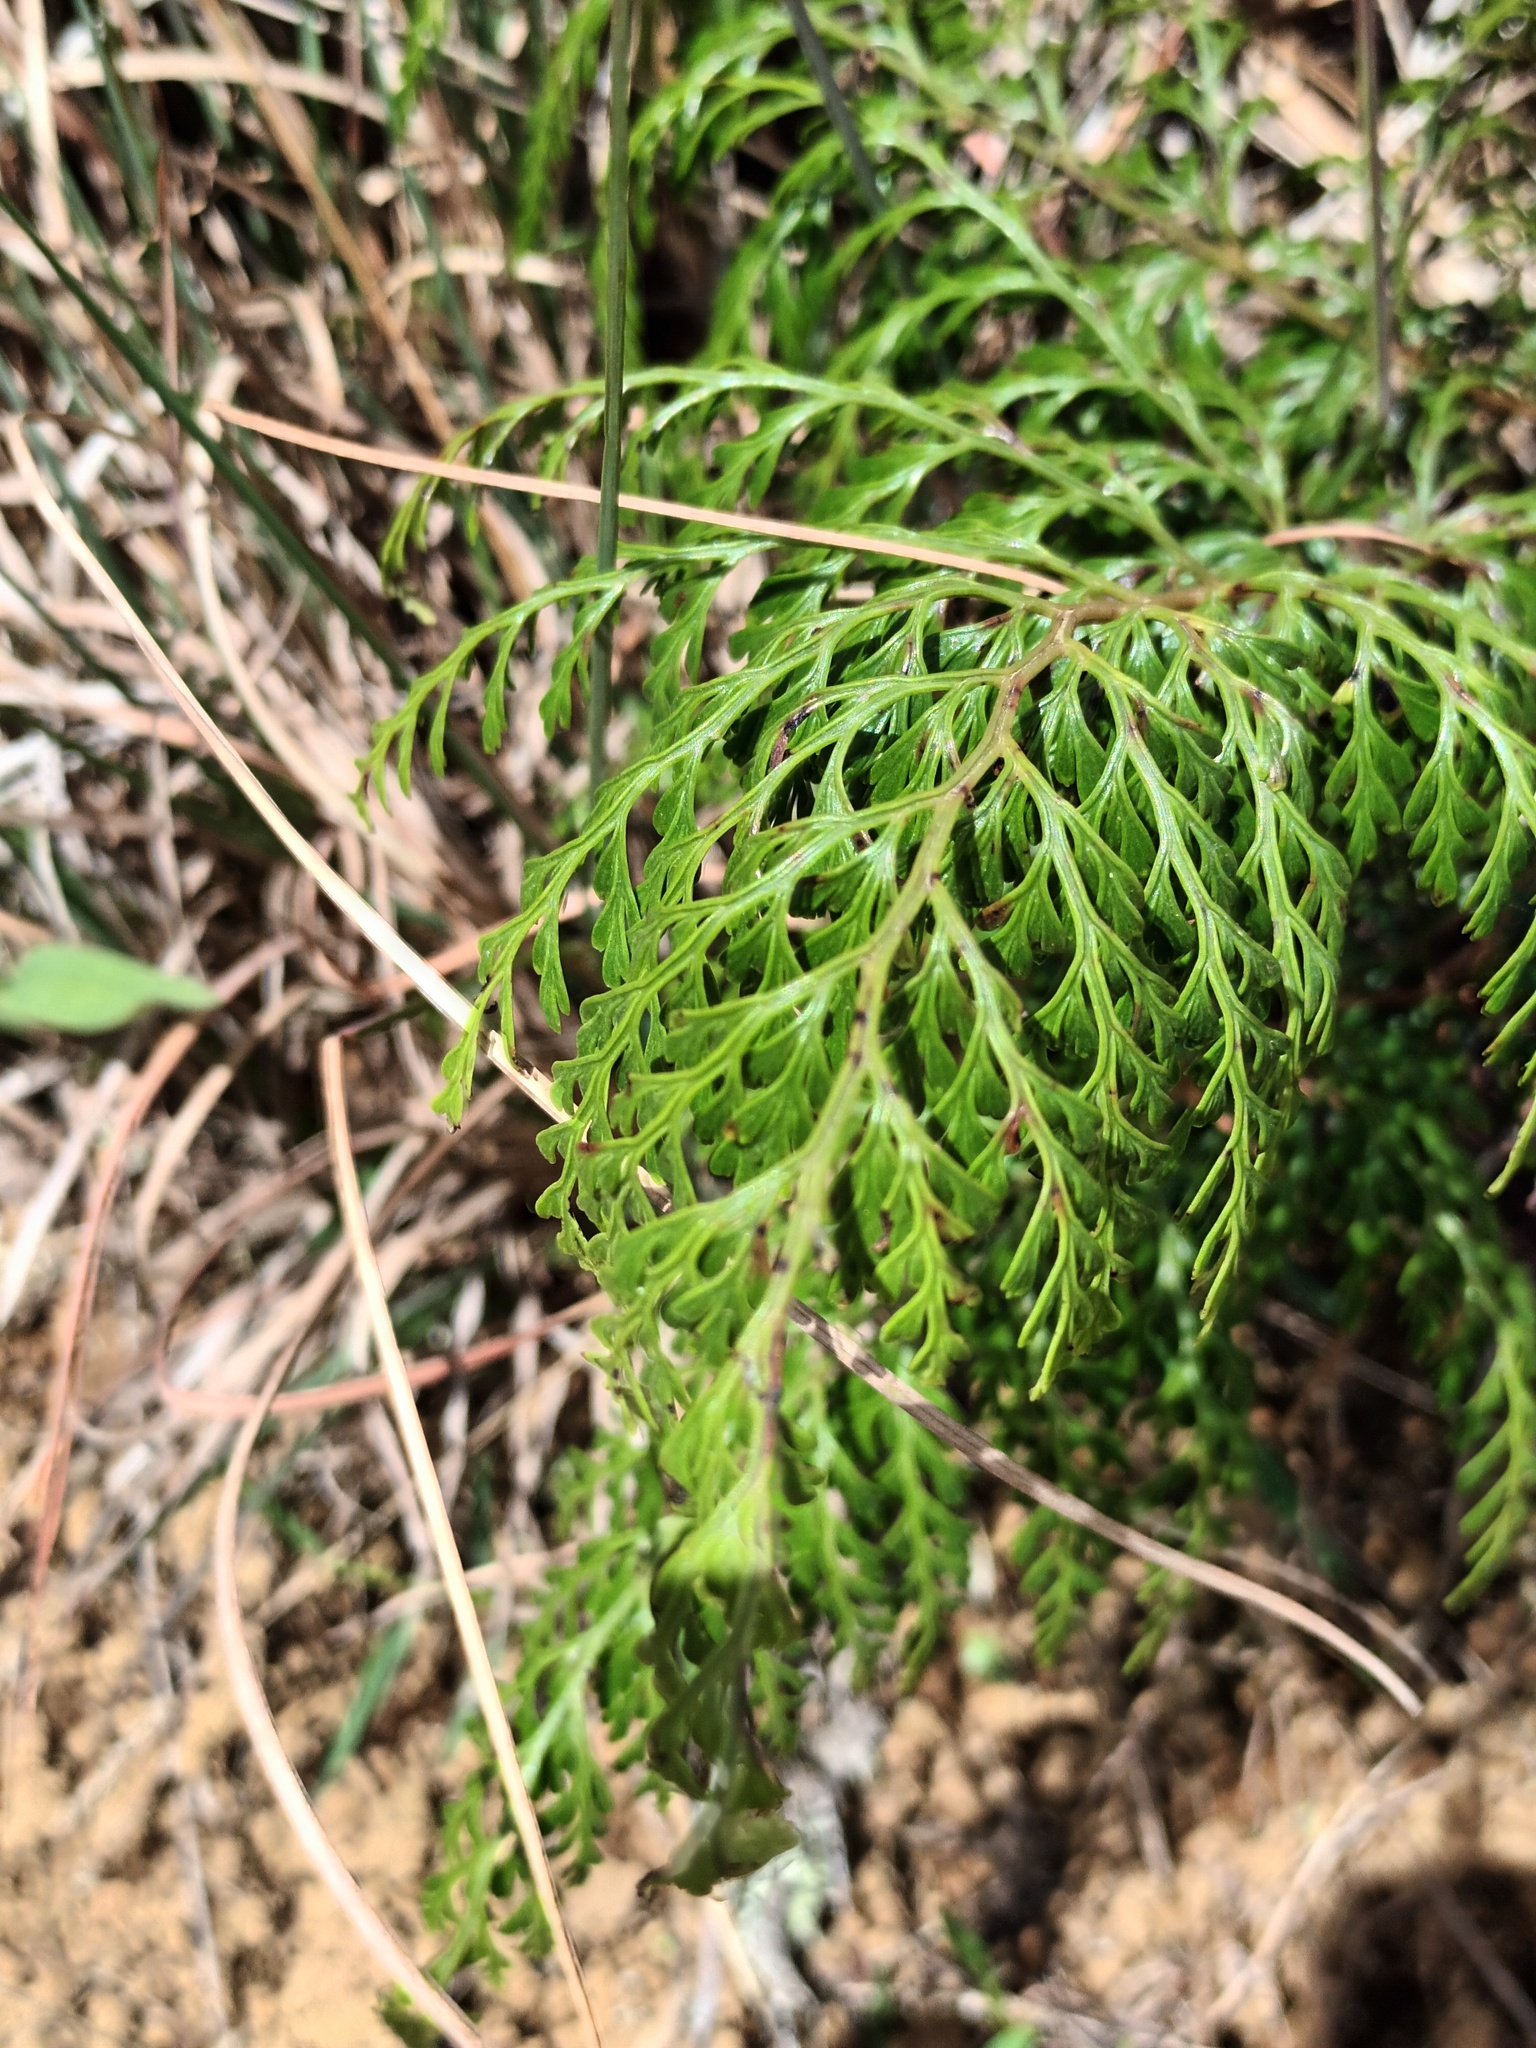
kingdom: Plantae
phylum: Tracheophyta
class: Polypodiopsida
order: Polypodiales
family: Lindsaeaceae
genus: Odontosoria
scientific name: Odontosoria chinensis
